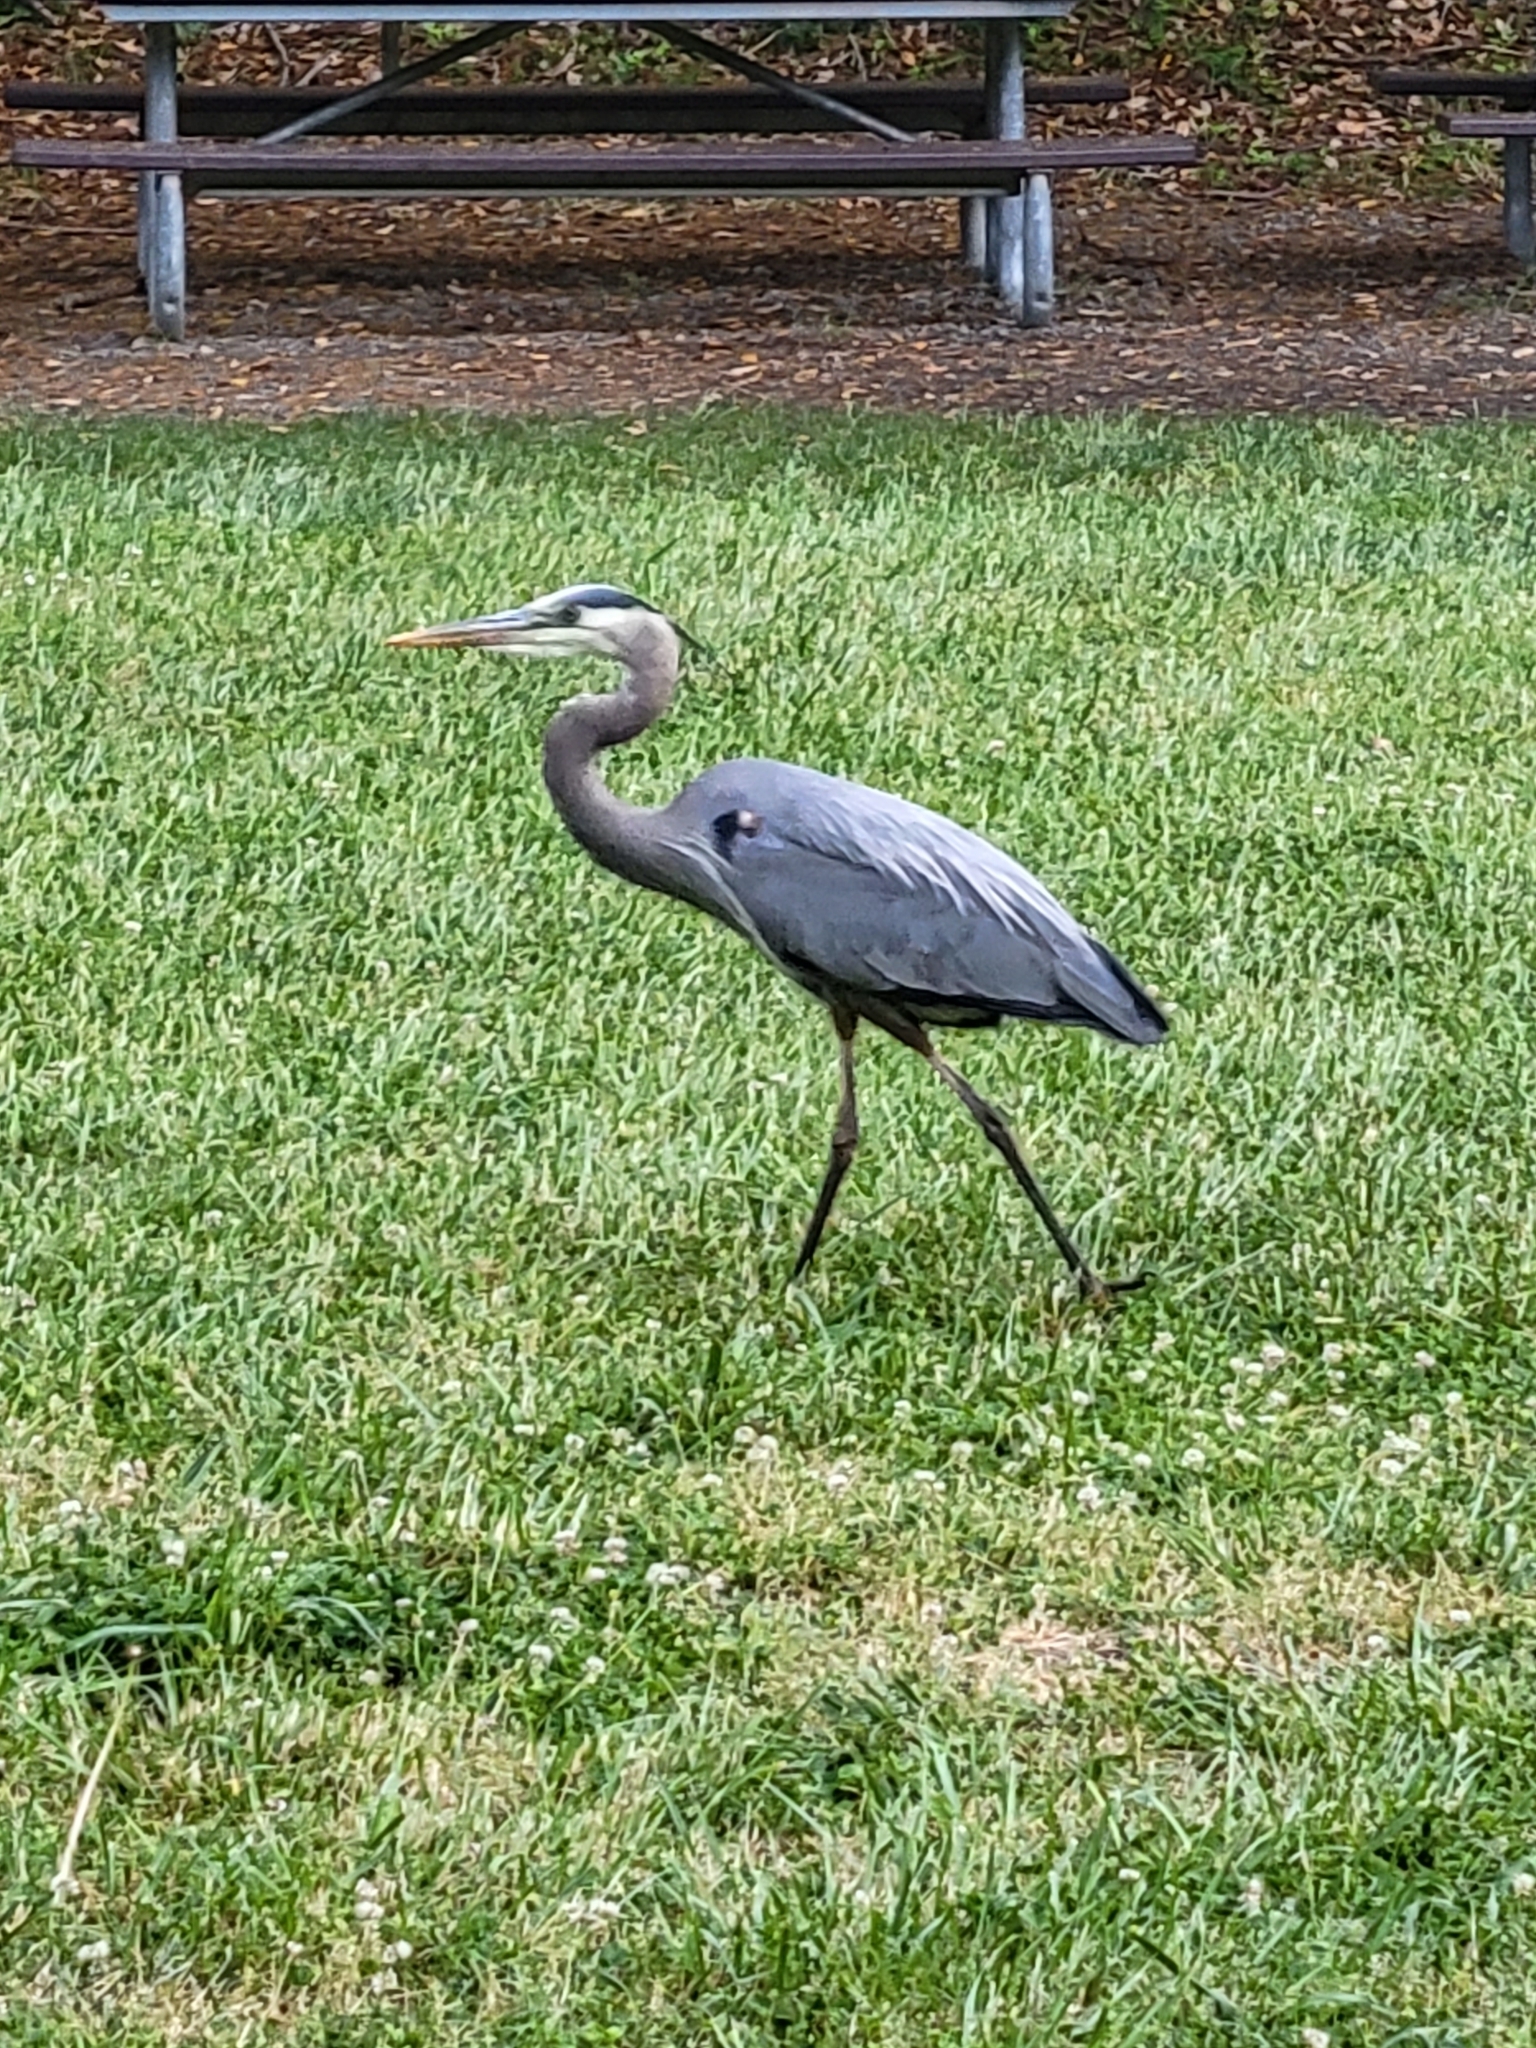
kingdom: Animalia
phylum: Chordata
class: Aves
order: Pelecaniformes
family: Ardeidae
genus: Ardea
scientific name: Ardea herodias
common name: Great blue heron
